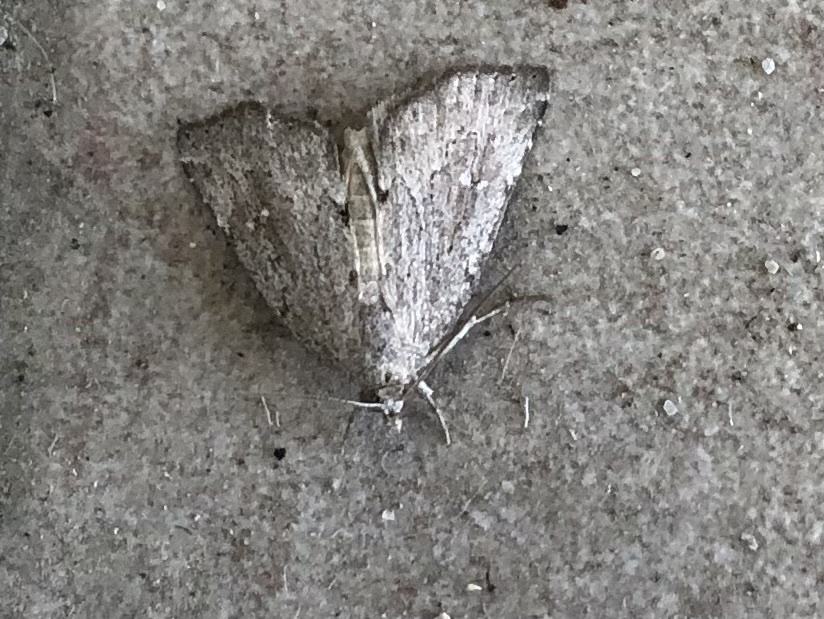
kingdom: Animalia
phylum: Arthropoda
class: Insecta
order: Lepidoptera
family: Erebidae
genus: Cutina
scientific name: Cutina albopunctella
